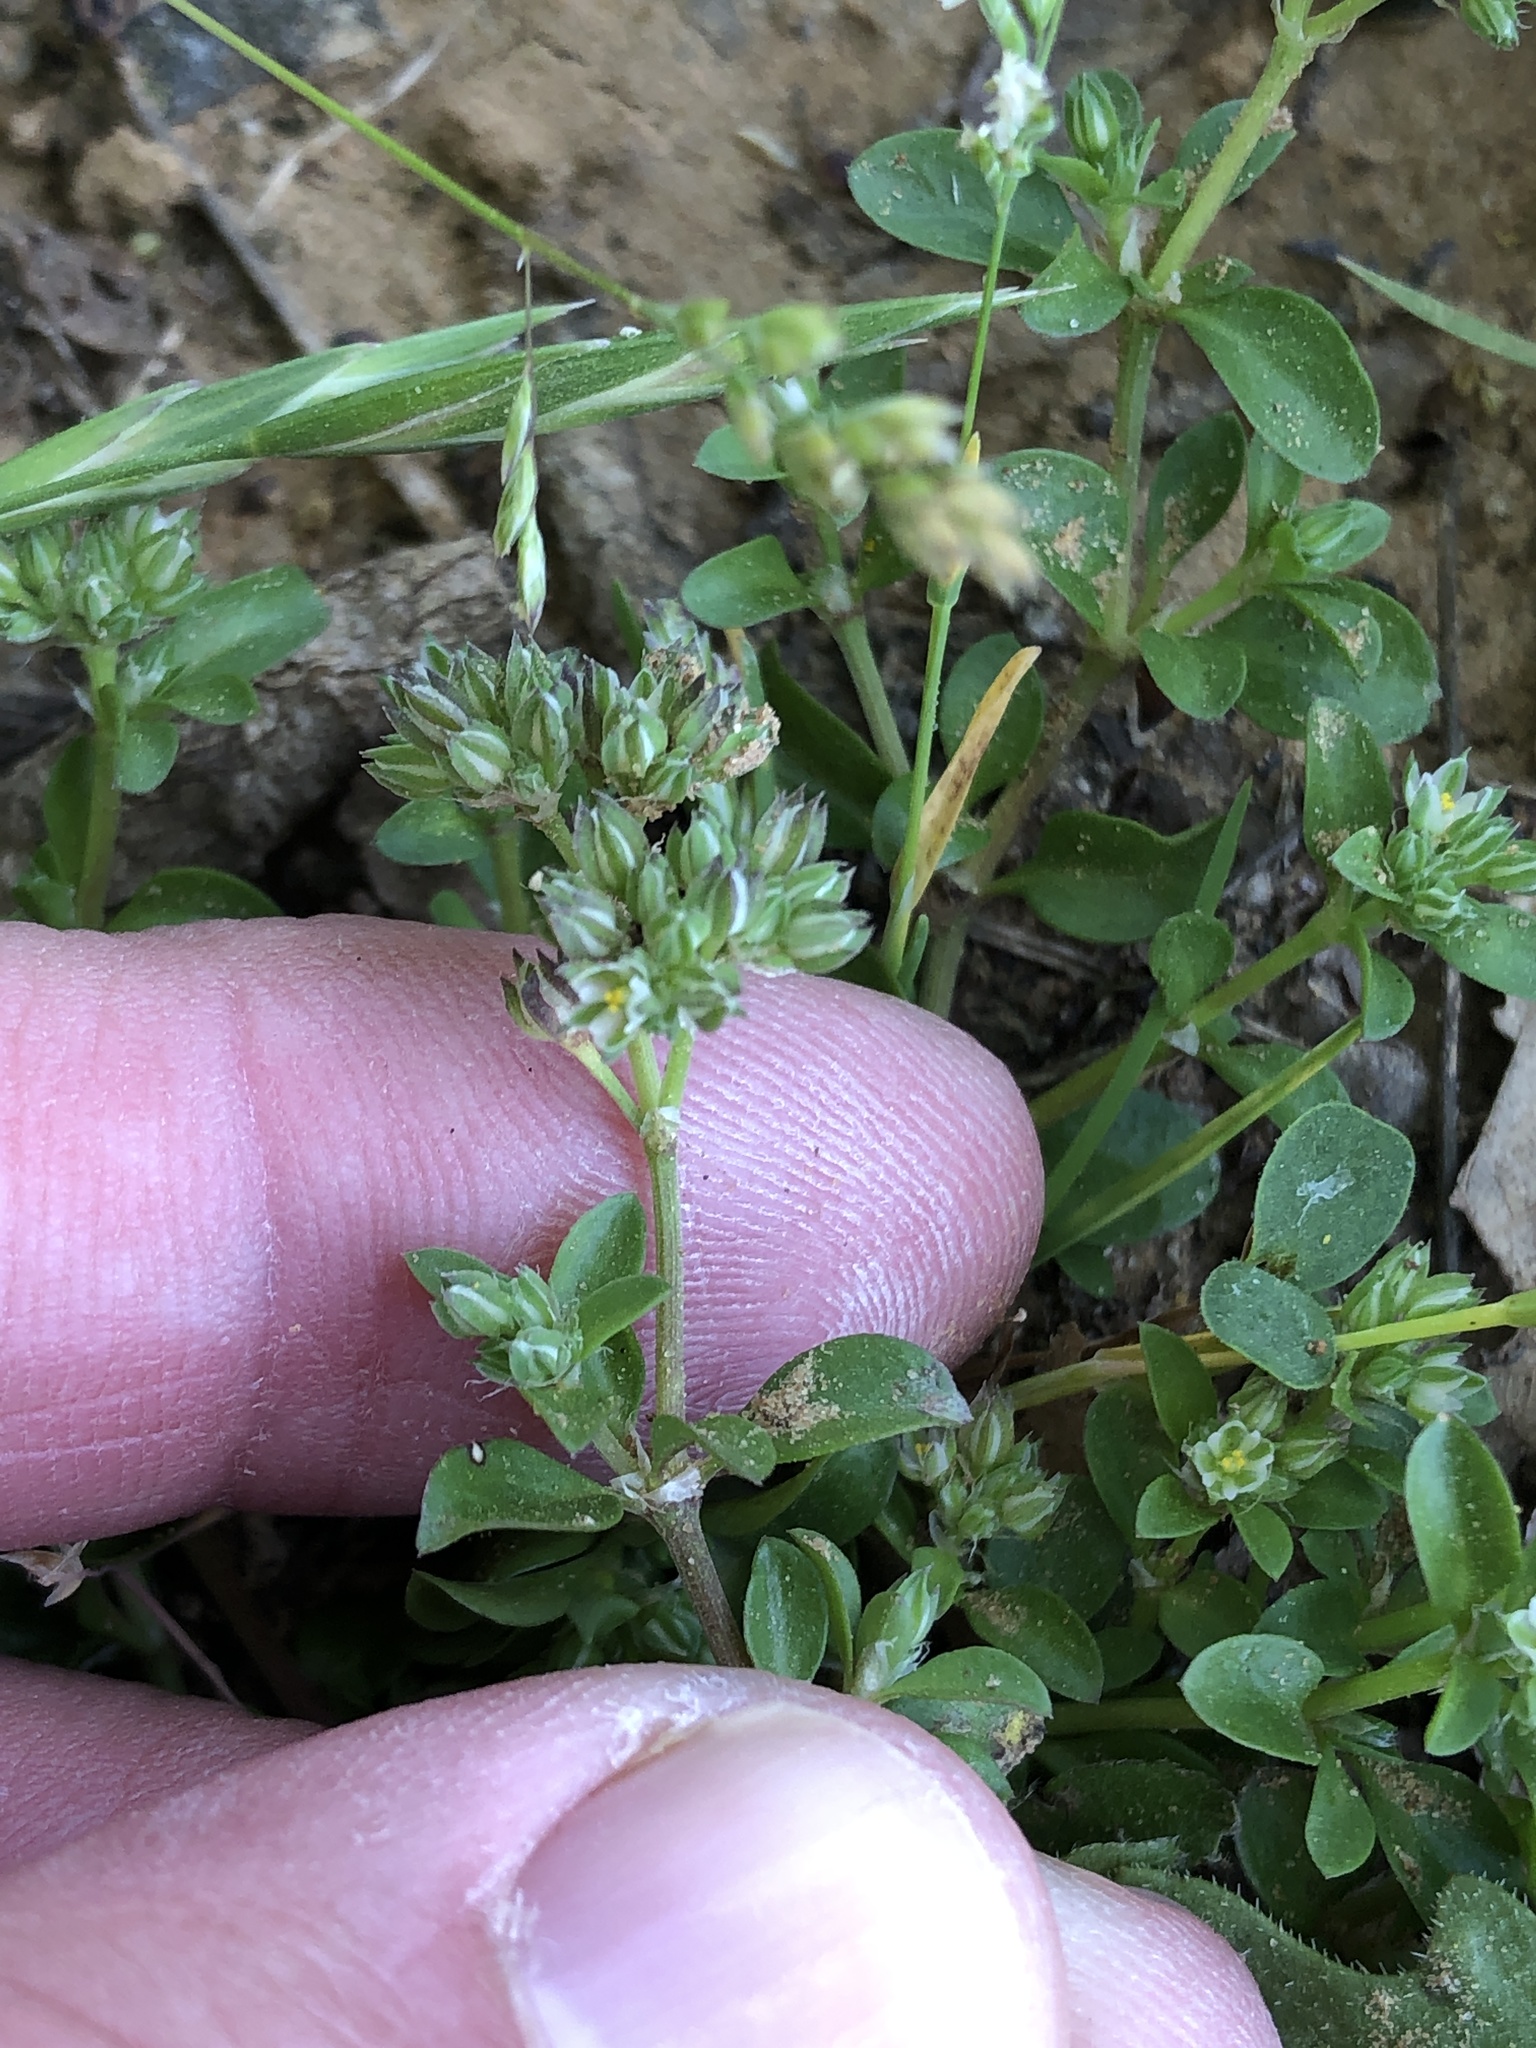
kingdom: Plantae
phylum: Tracheophyta
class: Magnoliopsida
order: Caryophyllales
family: Caryophyllaceae
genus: Polycarpon
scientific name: Polycarpon tetraphyllum
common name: Four-leaved all-seed
